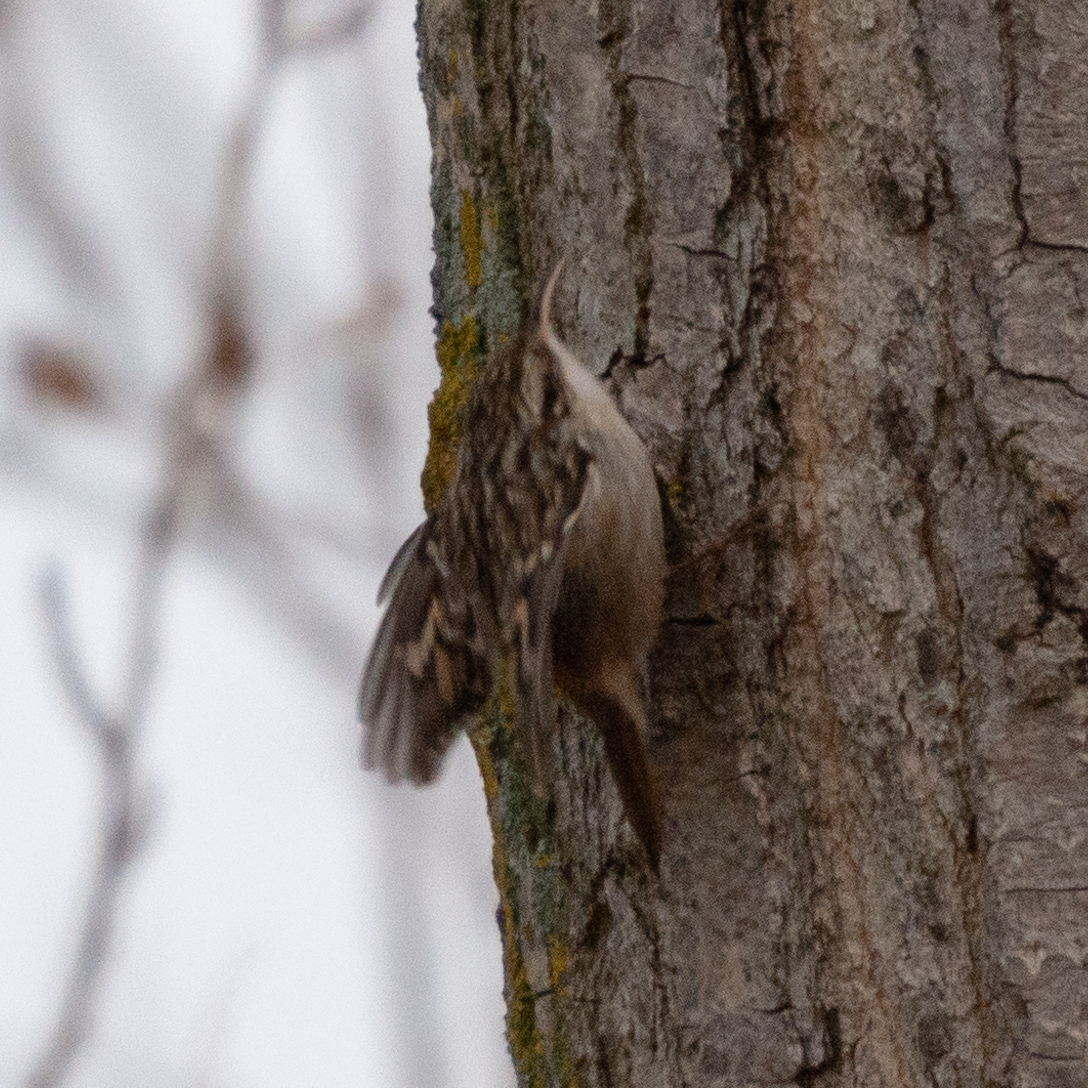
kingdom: Animalia
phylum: Chordata
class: Aves
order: Passeriformes
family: Certhiidae
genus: Certhia
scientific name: Certhia brachydactyla
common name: Short-toed treecreeper
